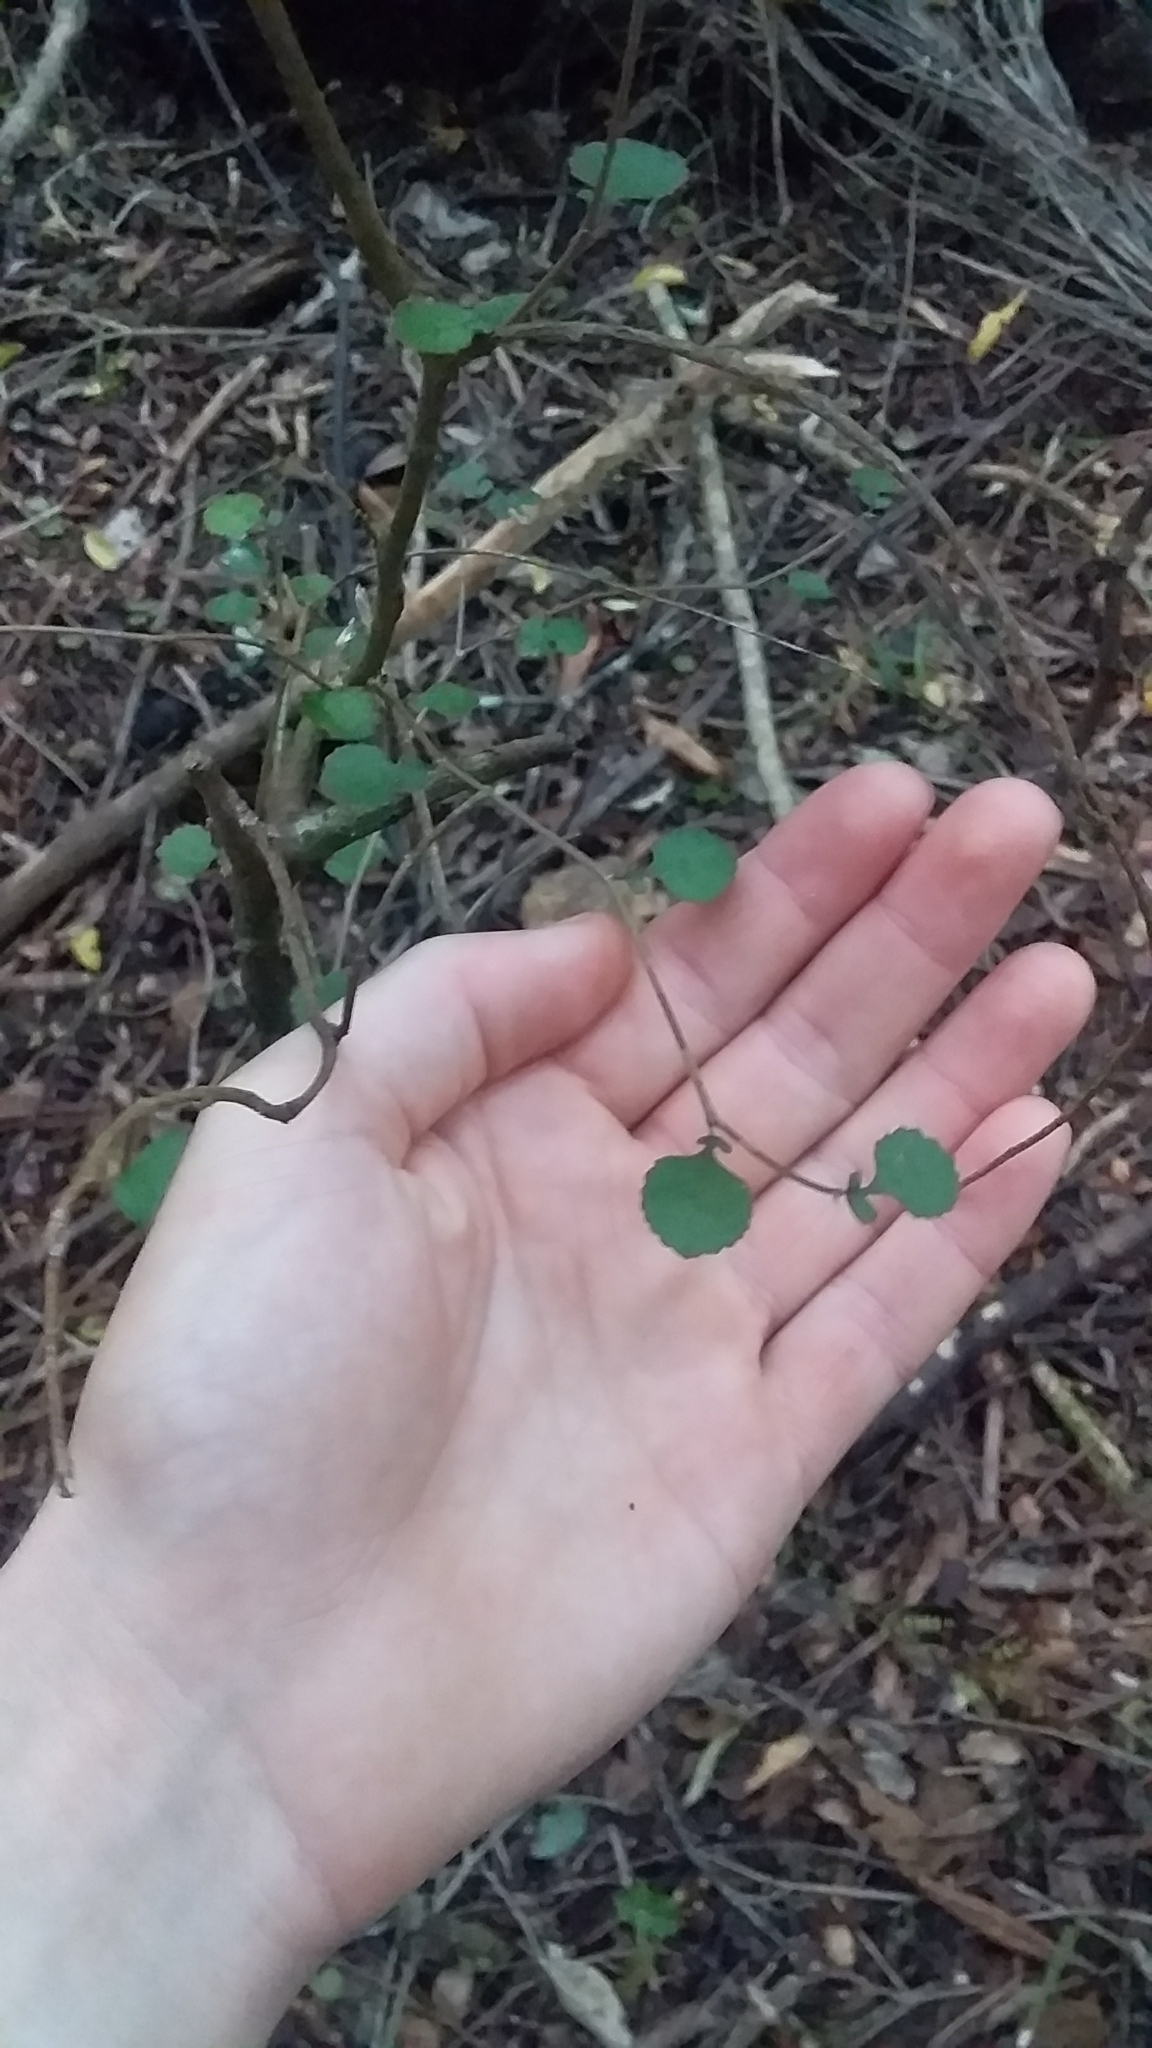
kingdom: Plantae
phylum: Tracheophyta
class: Magnoliopsida
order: Rosales
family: Moraceae
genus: Paratrophis
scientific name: Paratrophis microphylla
